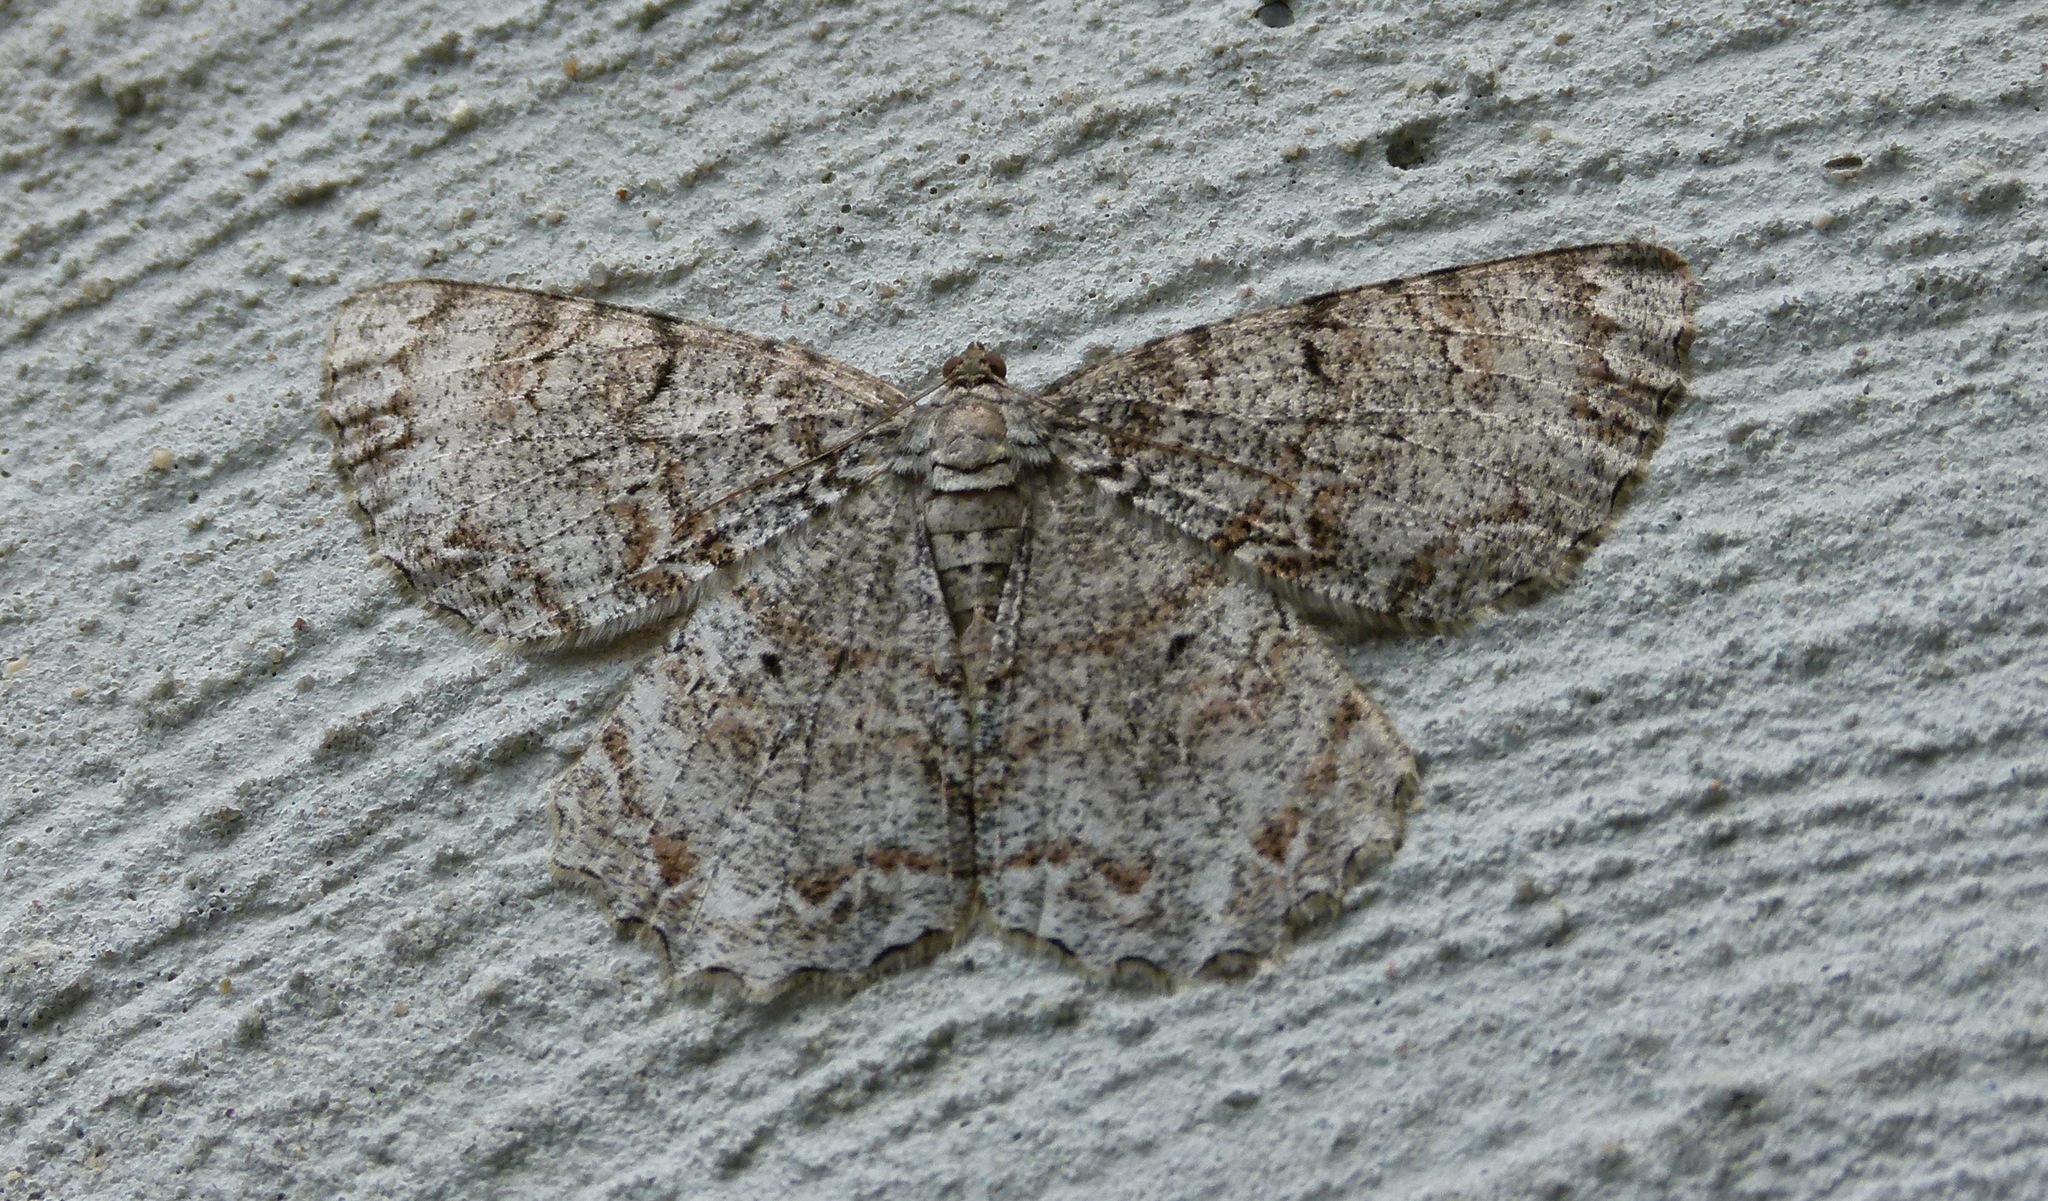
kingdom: Animalia
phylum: Arthropoda
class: Insecta
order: Lepidoptera
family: Geometridae
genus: Epimecis
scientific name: Epimecis hortaria
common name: Tulip-tree beauty
